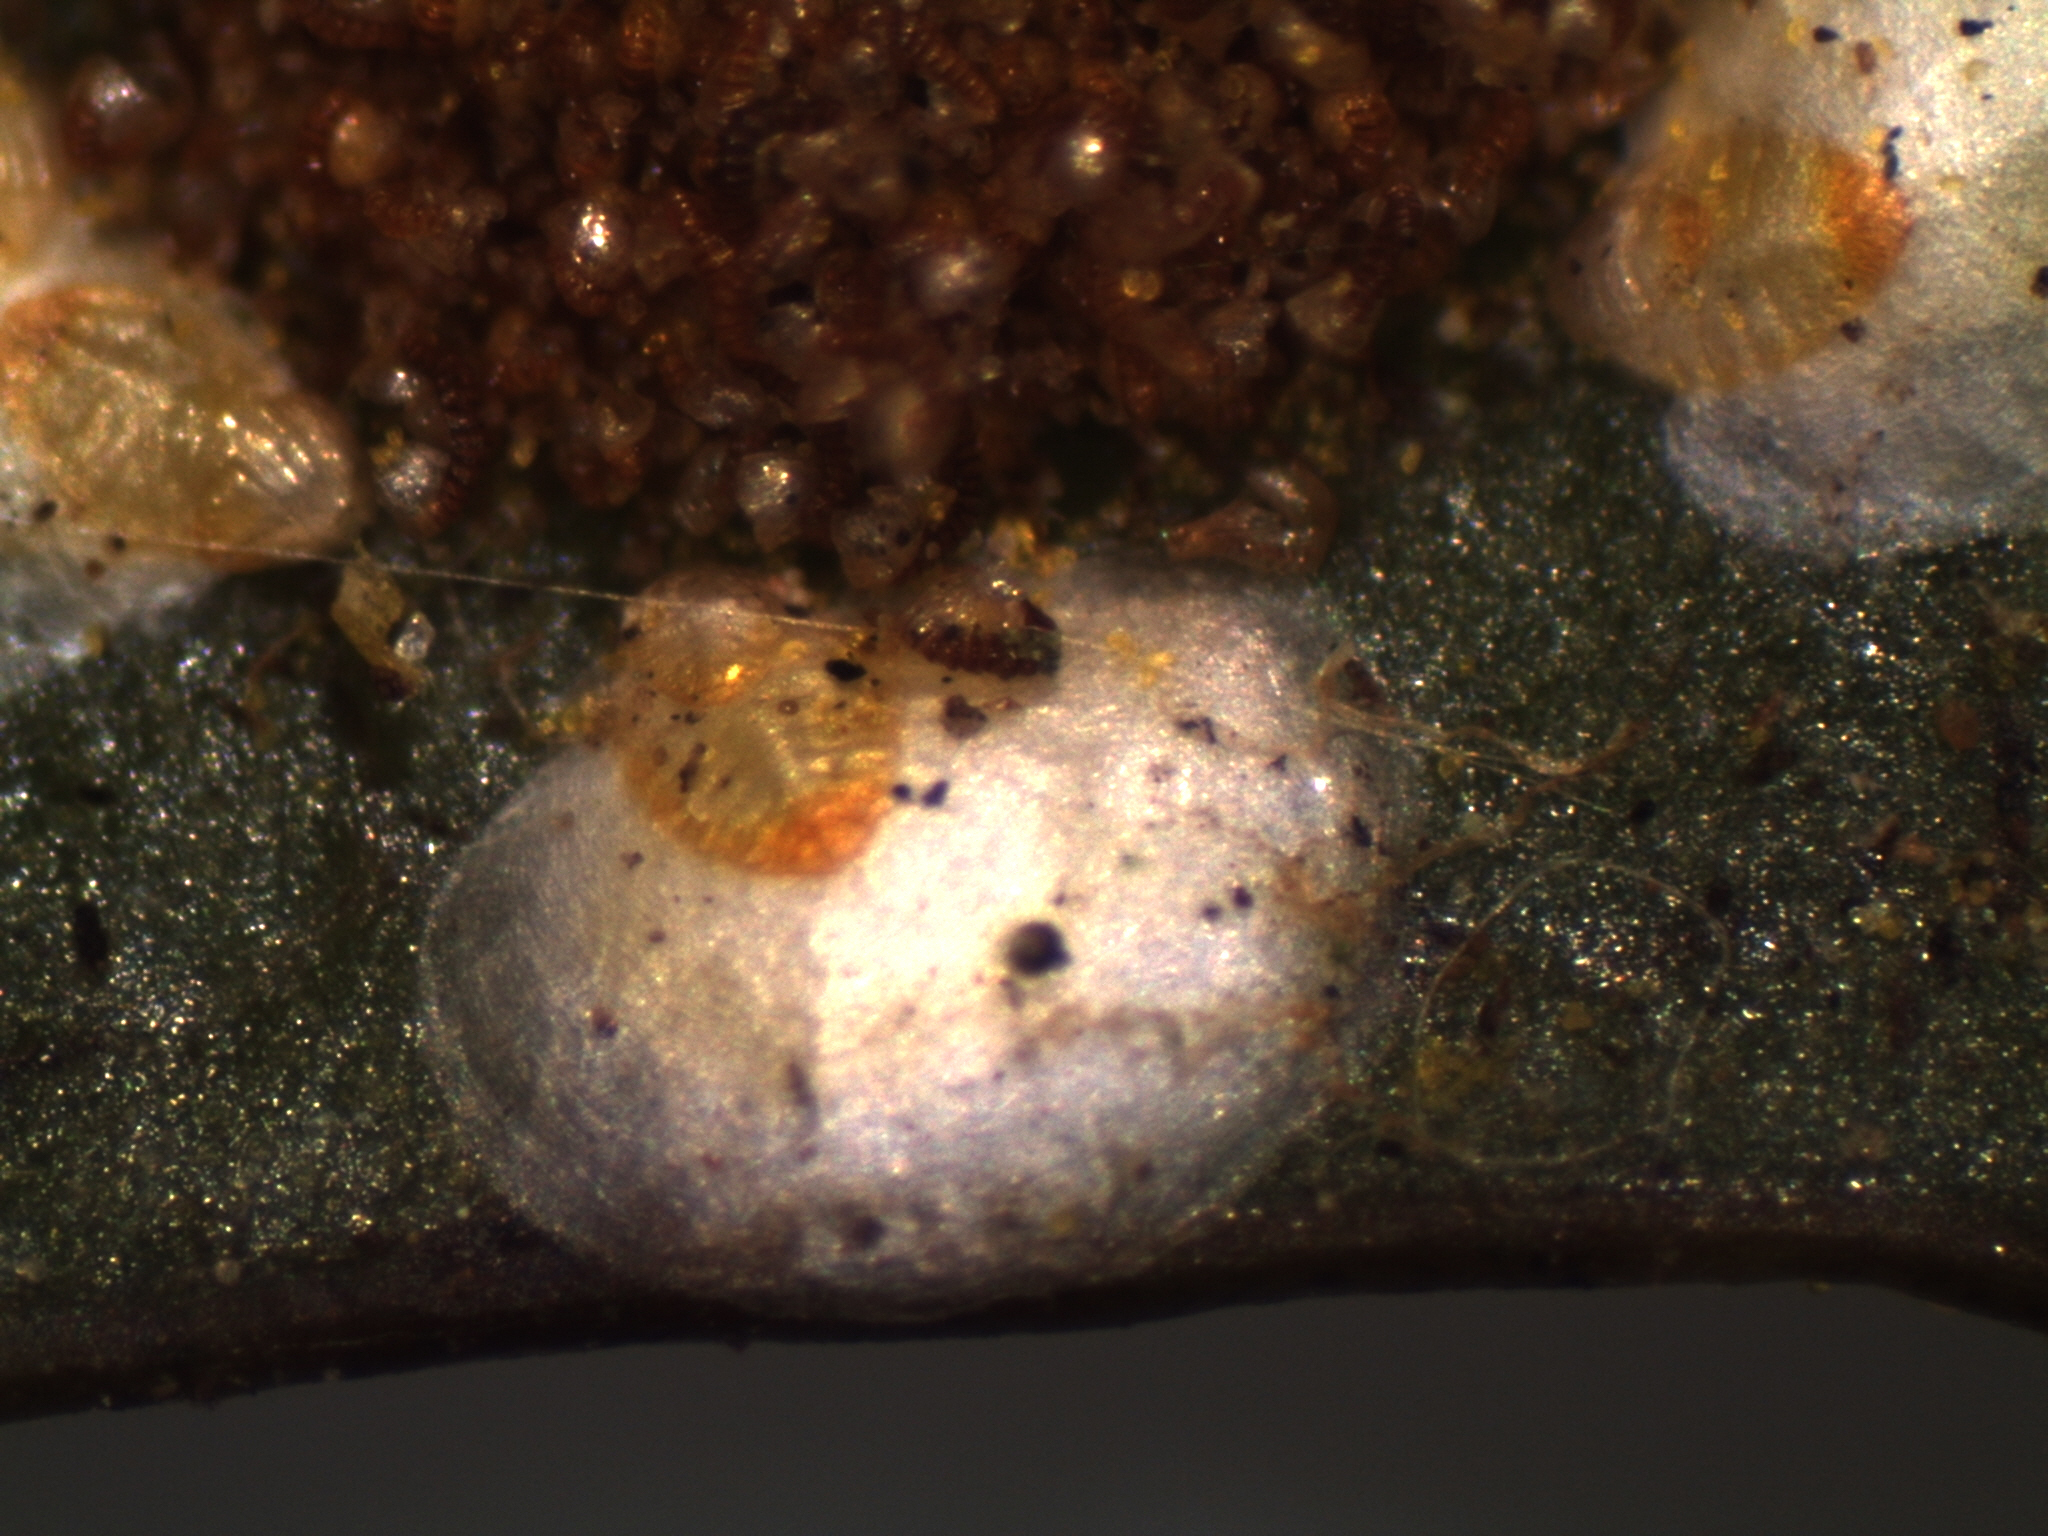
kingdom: Animalia
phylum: Arthropoda
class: Insecta
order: Hemiptera
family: Diaspididae
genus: Pseudaulacaspis
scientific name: Pseudaulacaspis phymatodidis
